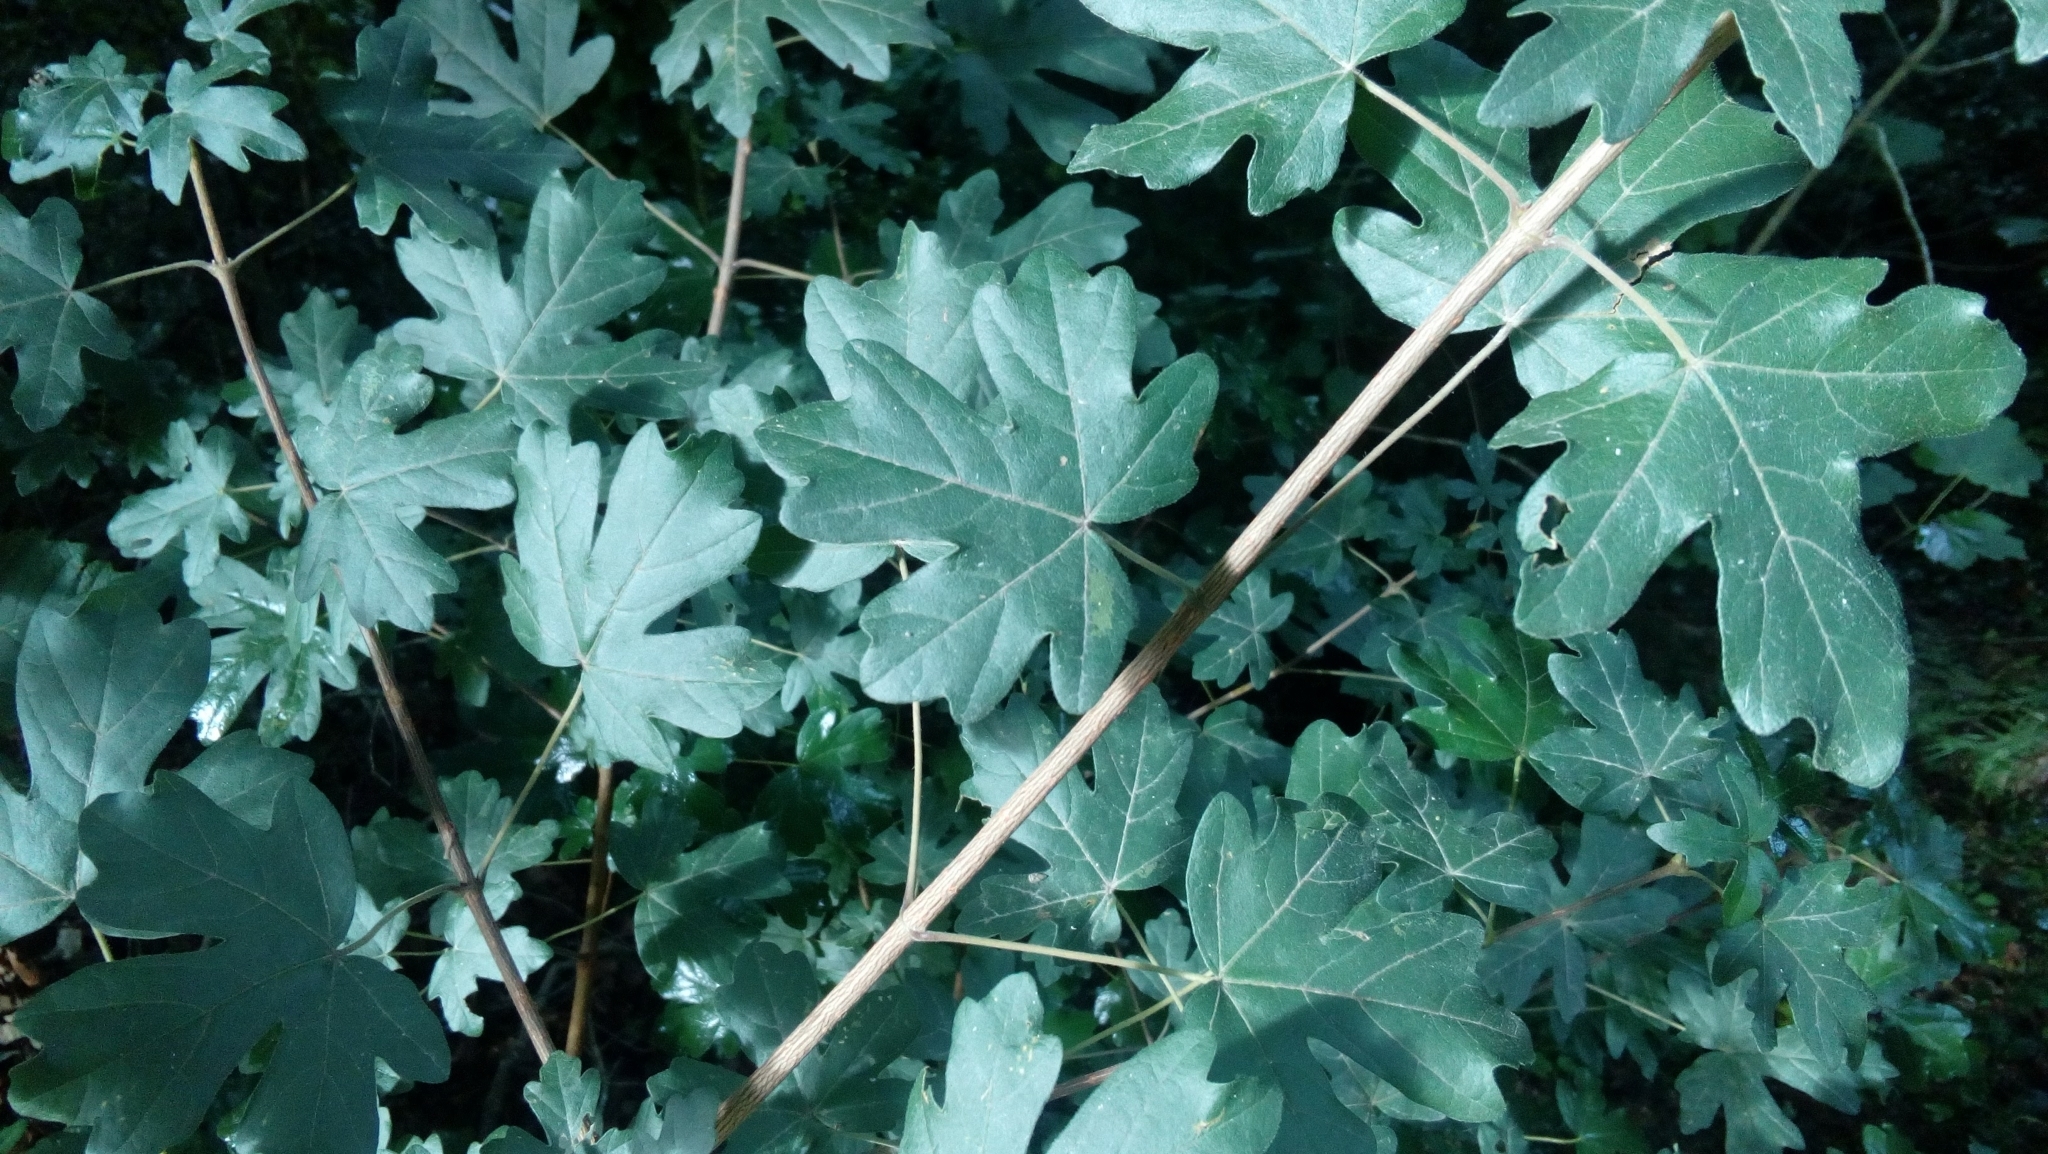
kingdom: Plantae
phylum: Tracheophyta
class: Magnoliopsida
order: Sapindales
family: Sapindaceae
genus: Acer
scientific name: Acer campestre
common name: Field maple
